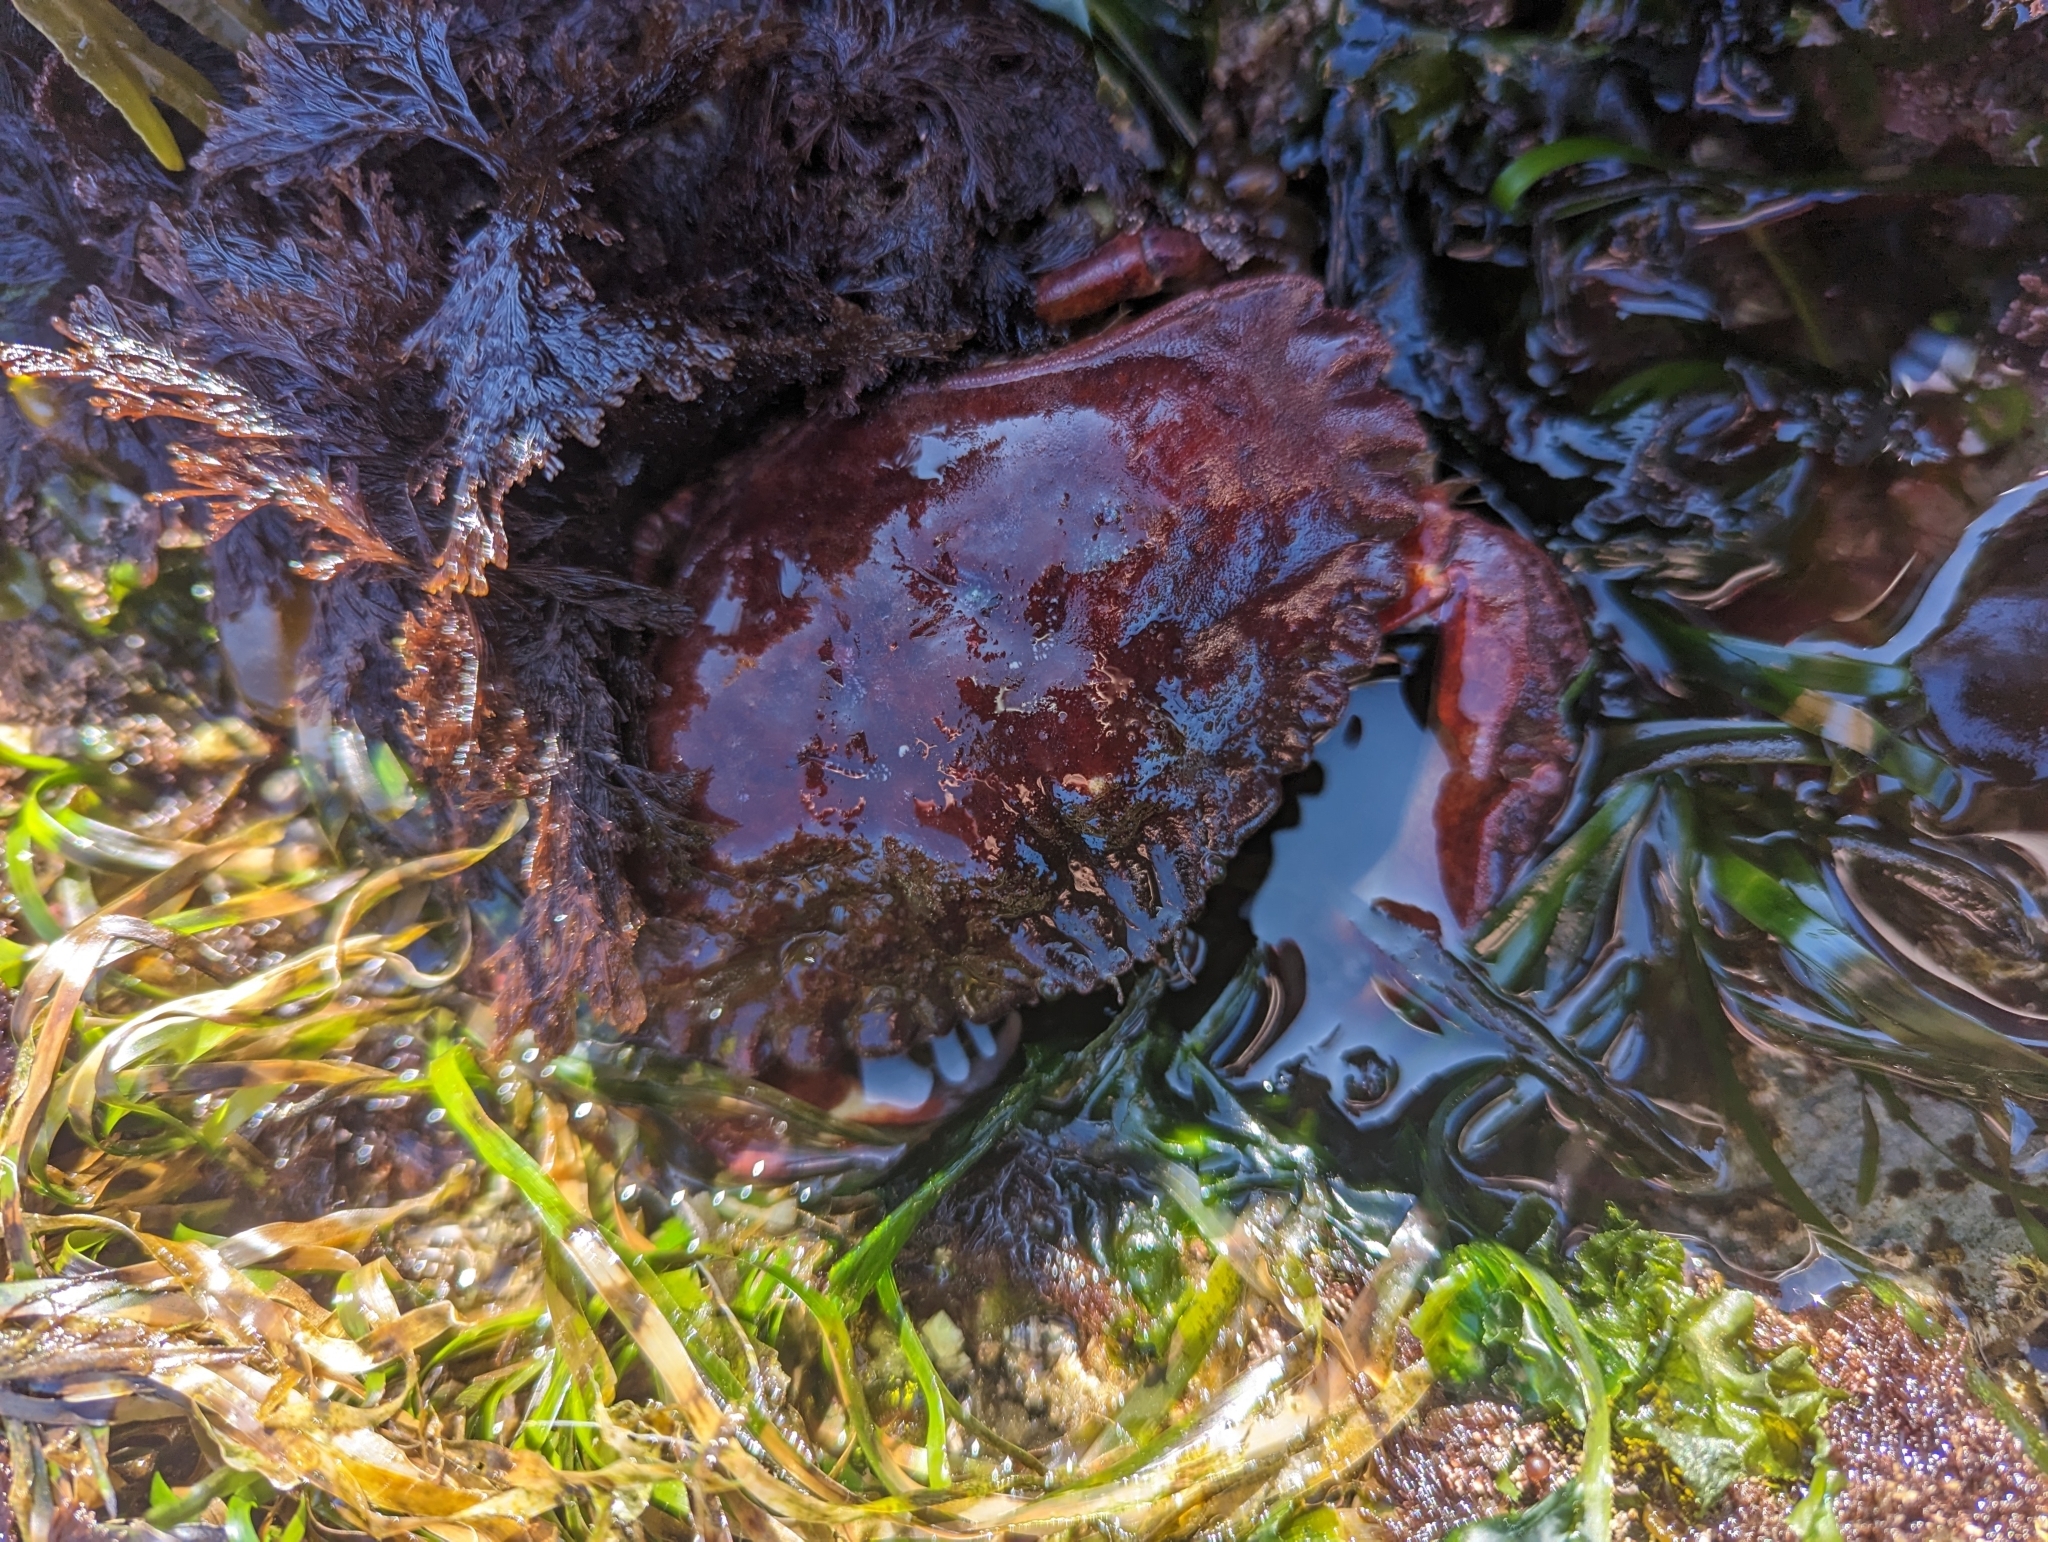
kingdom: Animalia
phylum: Arthropoda
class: Malacostraca
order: Decapoda
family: Cancridae
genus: Cancer
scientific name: Cancer productus
